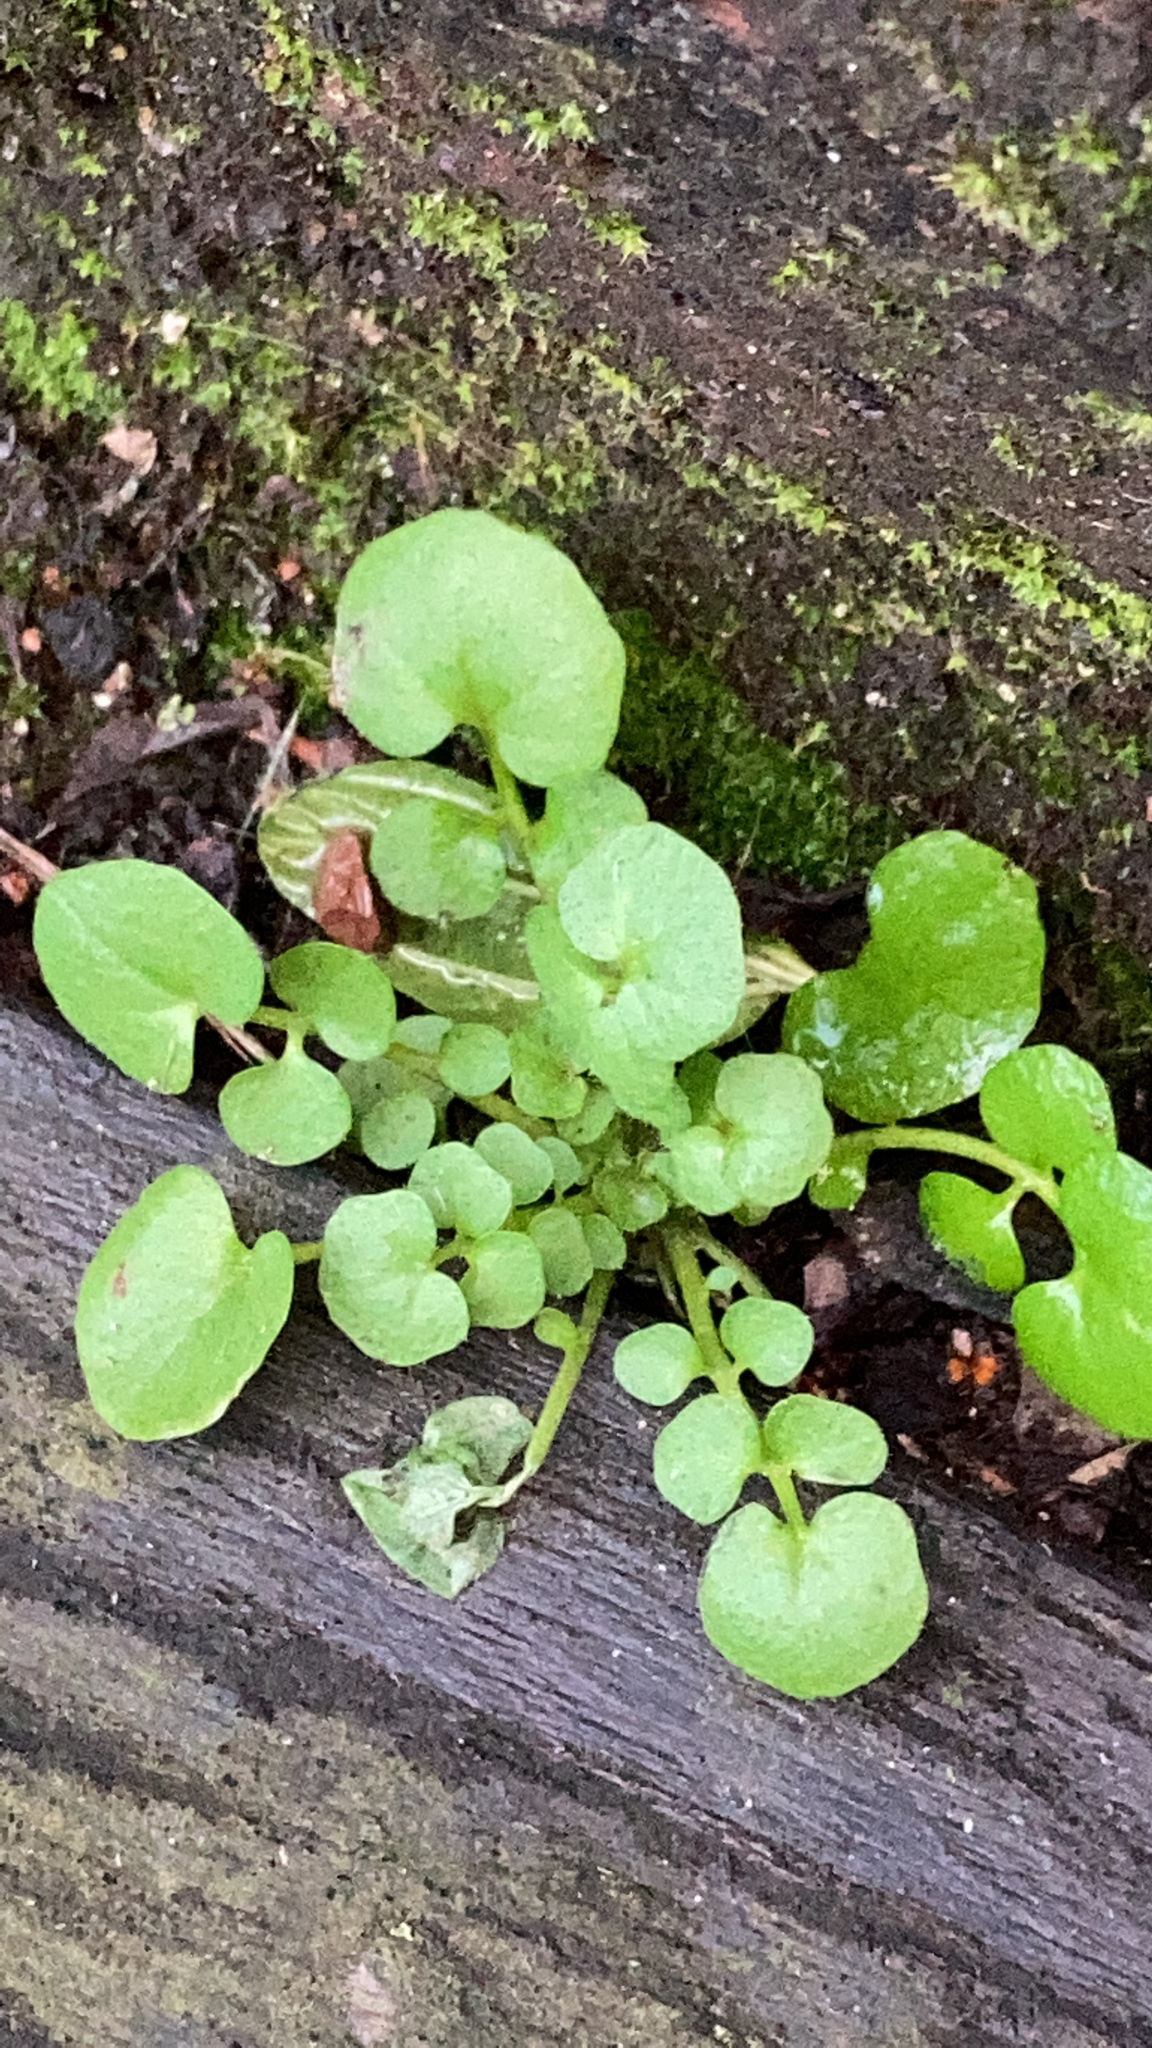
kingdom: Plantae
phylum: Tracheophyta
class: Magnoliopsida
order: Brassicales
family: Brassicaceae
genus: Cardamine
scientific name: Cardamine hirsuta
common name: Hairy bittercress
